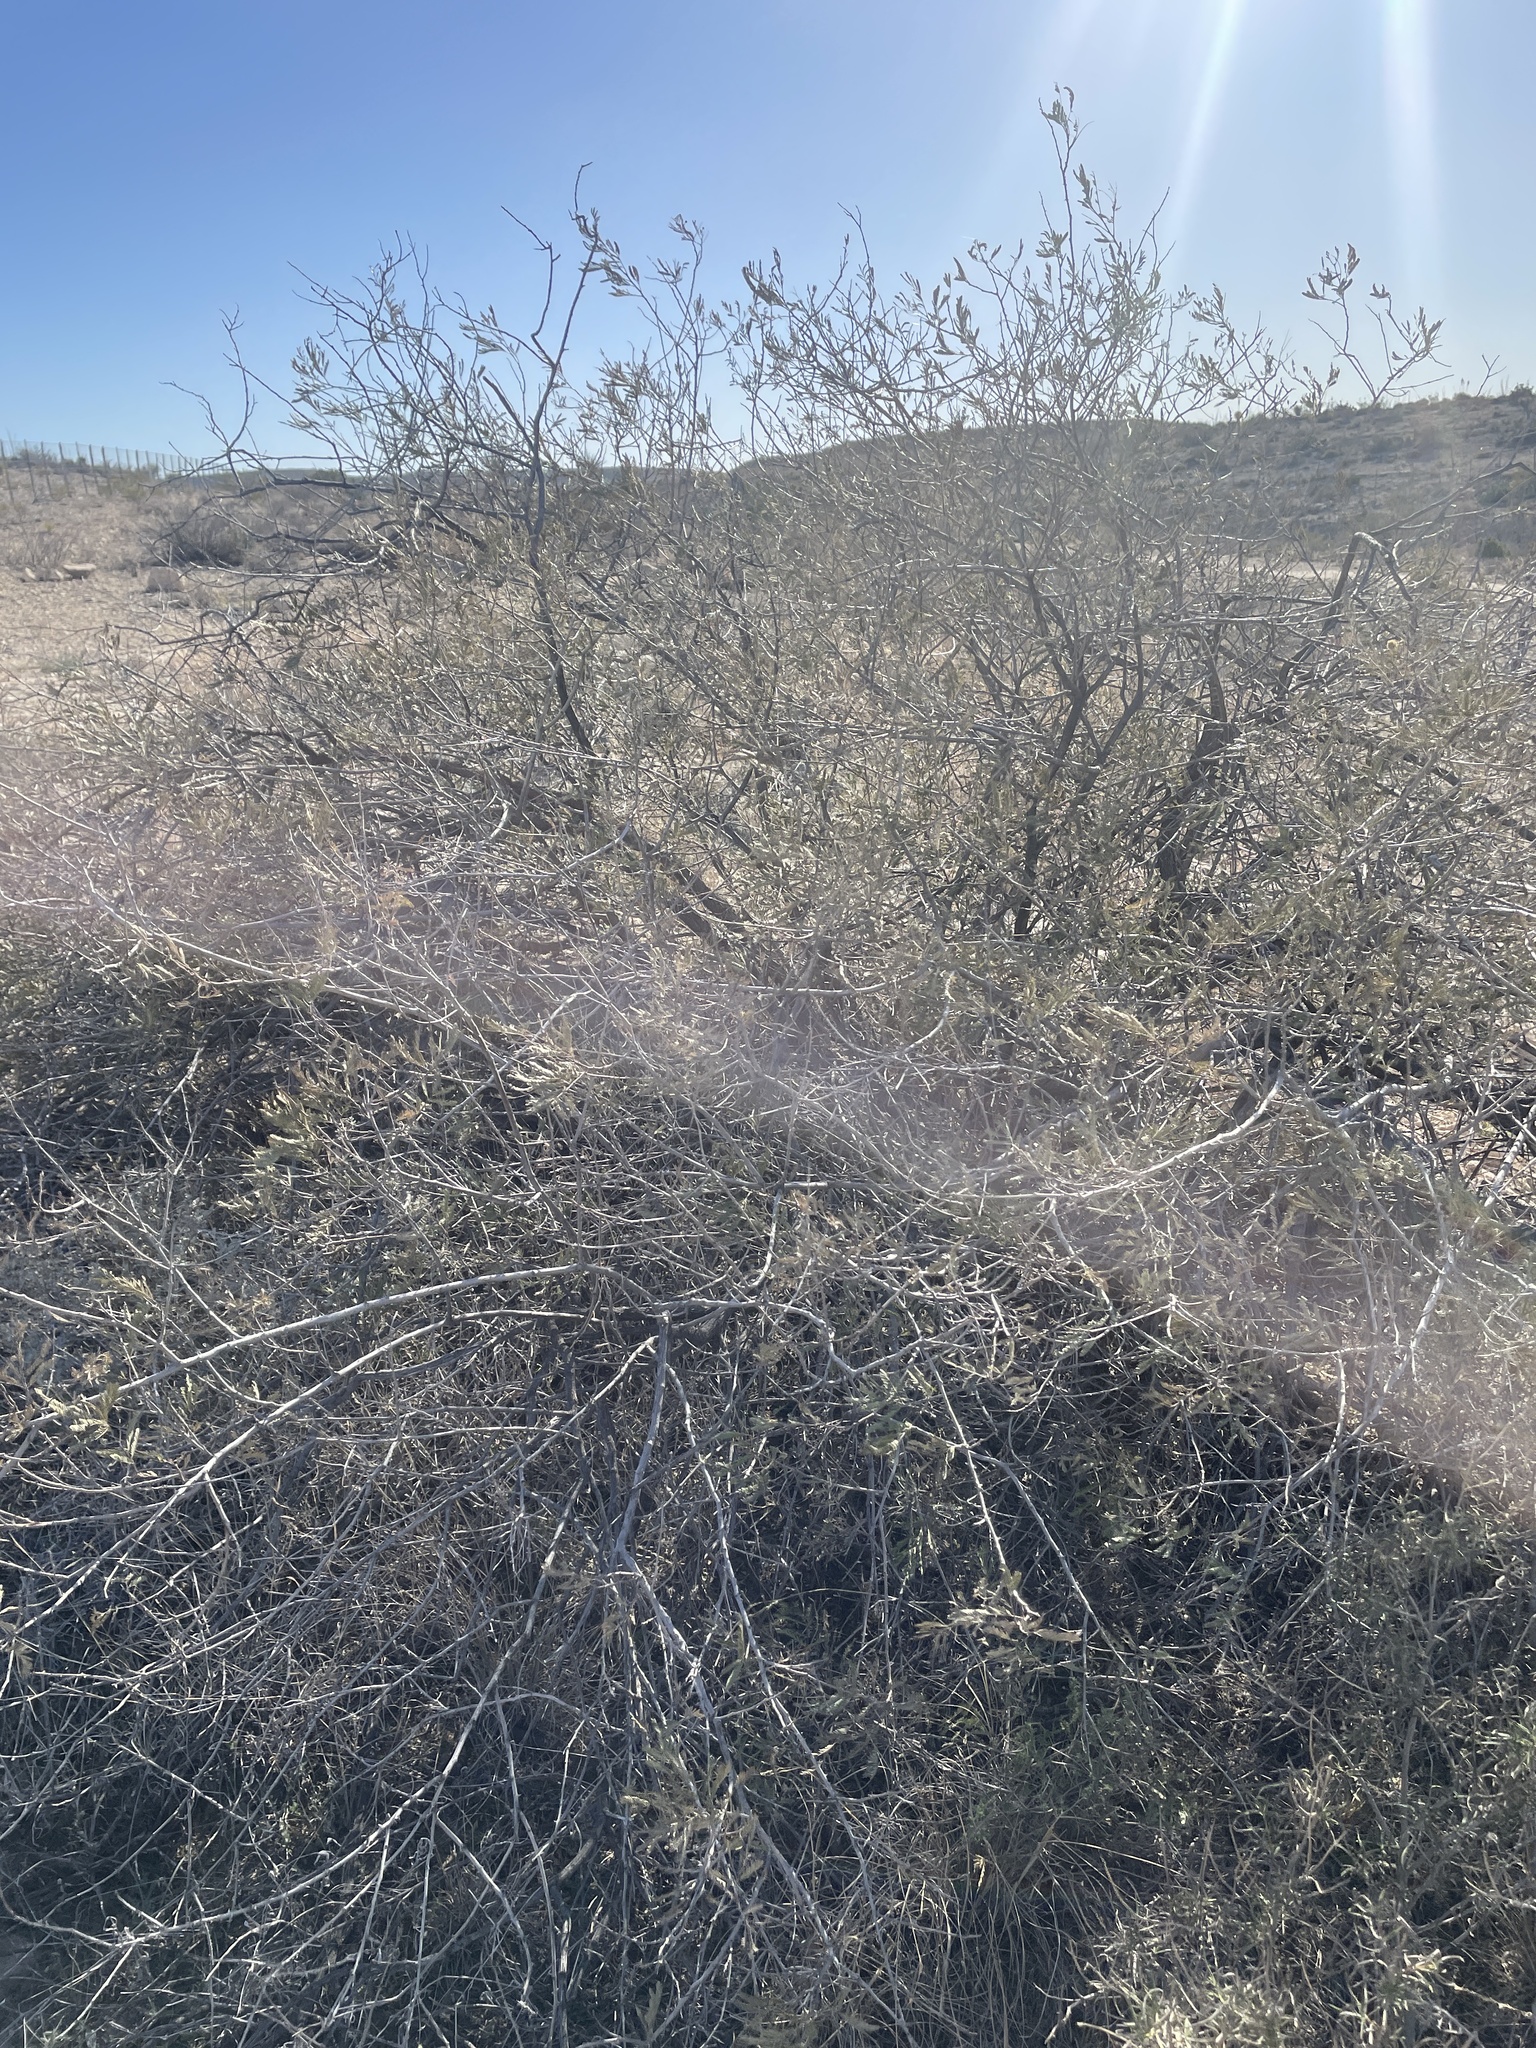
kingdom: Plantae
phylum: Tracheophyta
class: Magnoliopsida
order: Fabales
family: Fabaceae
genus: Senegalia
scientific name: Senegalia berlandieri
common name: Berlandier acacia
